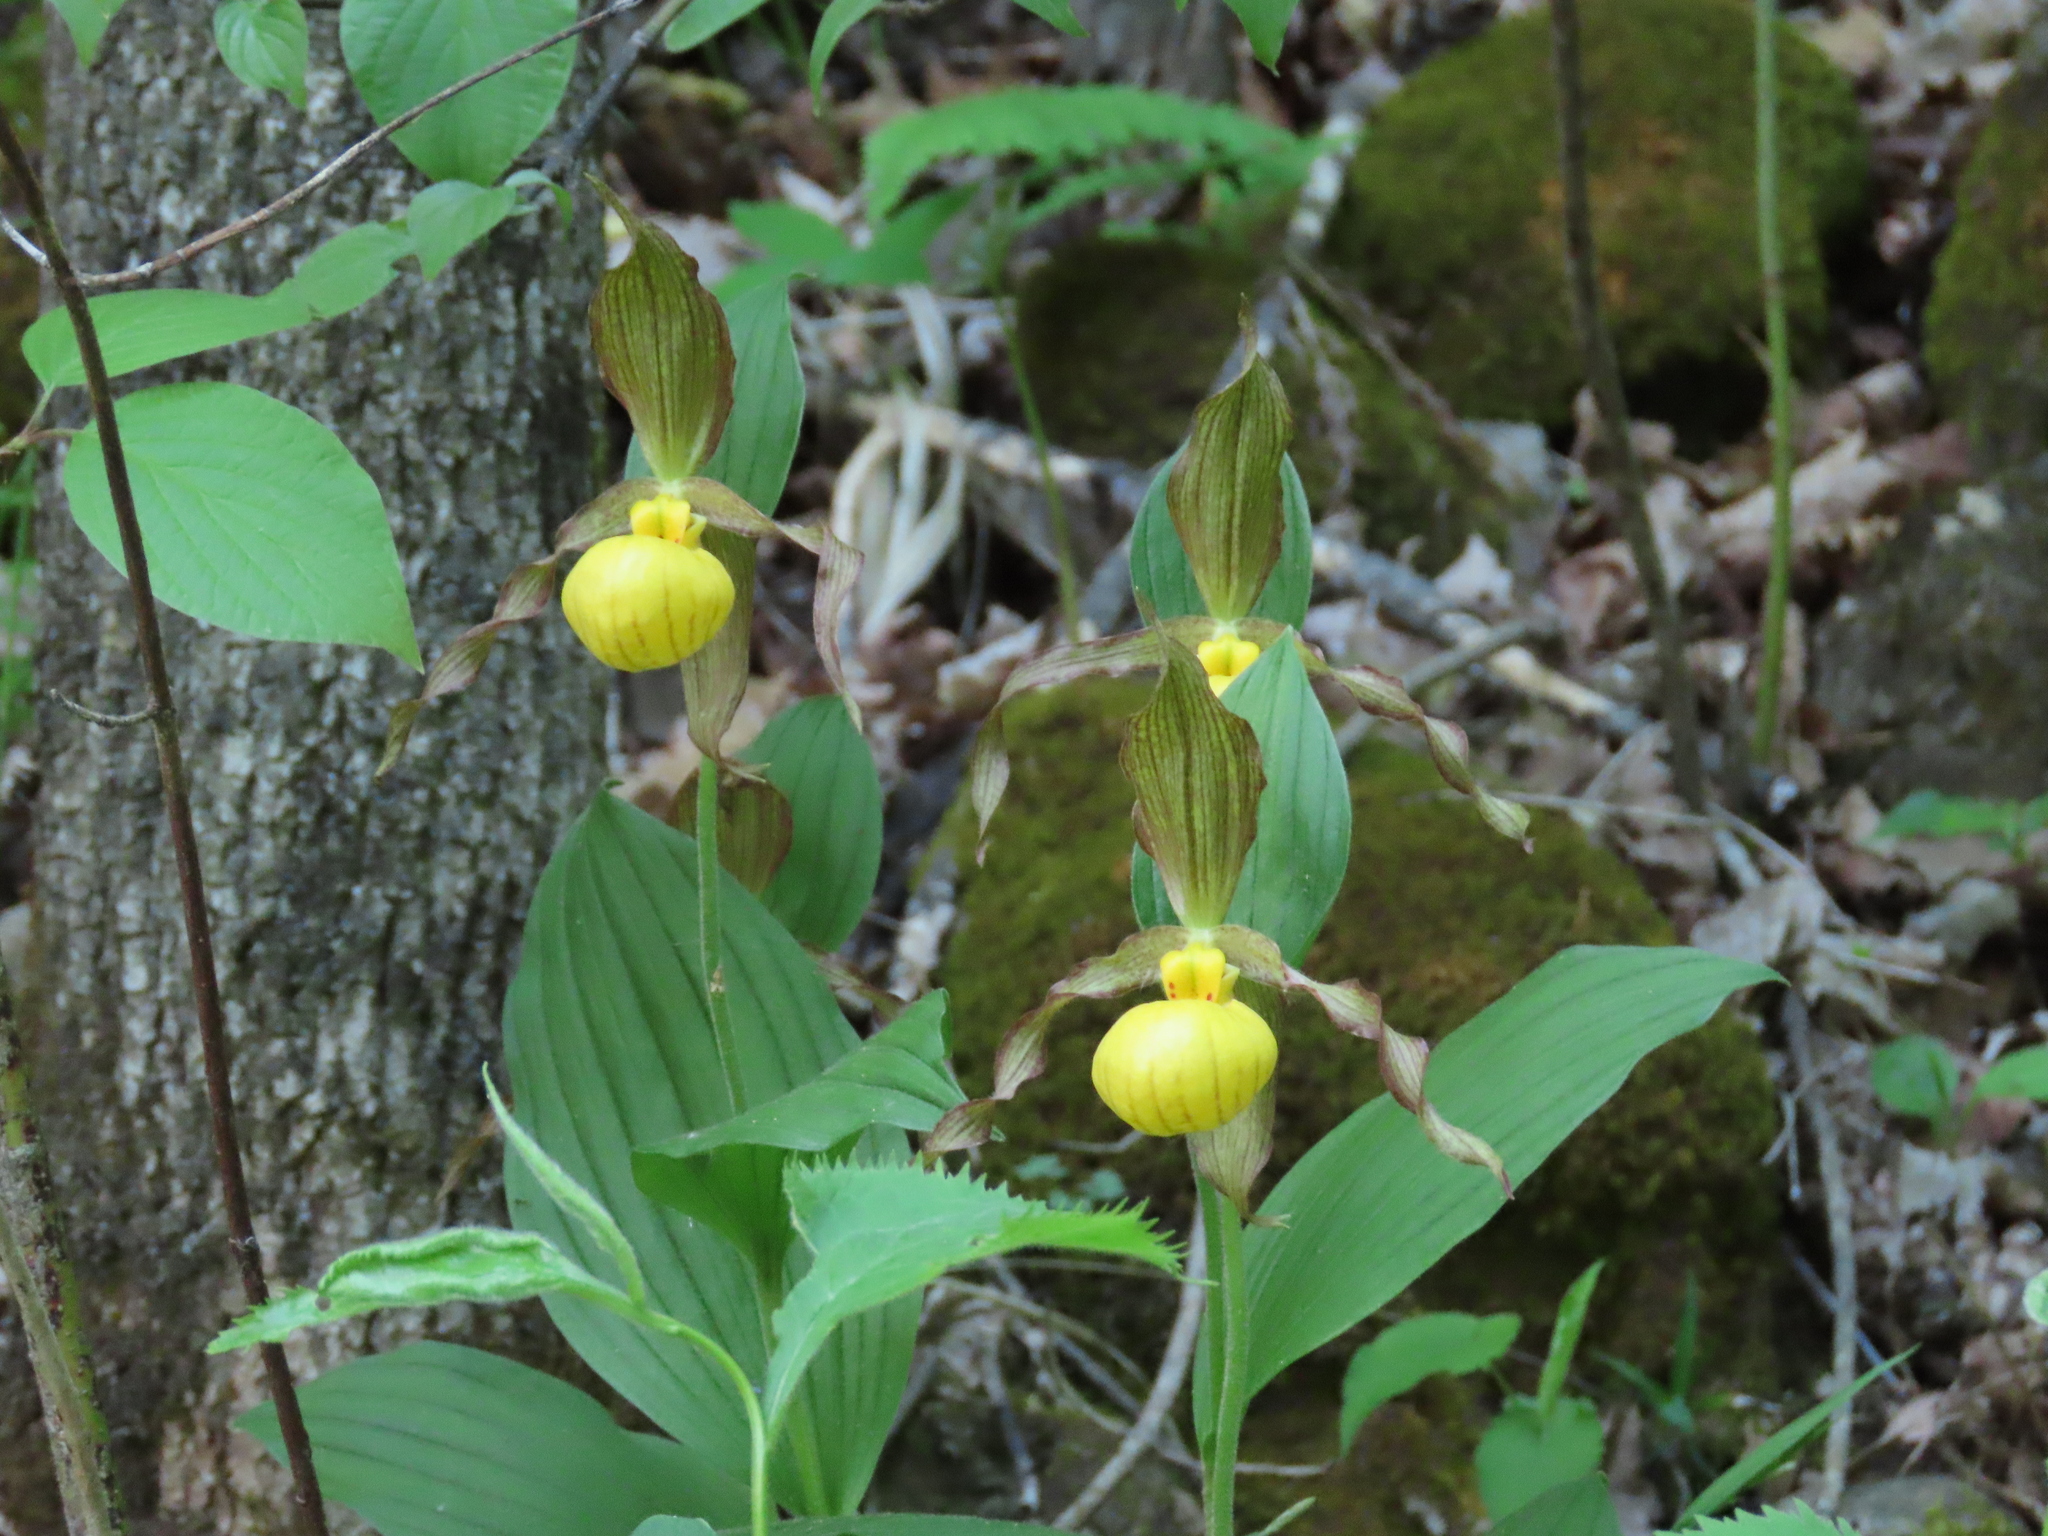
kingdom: Plantae
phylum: Tracheophyta
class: Liliopsida
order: Asparagales
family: Orchidaceae
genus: Cypripedium
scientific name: Cypripedium parviflorum
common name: American yellow lady's-slipper
